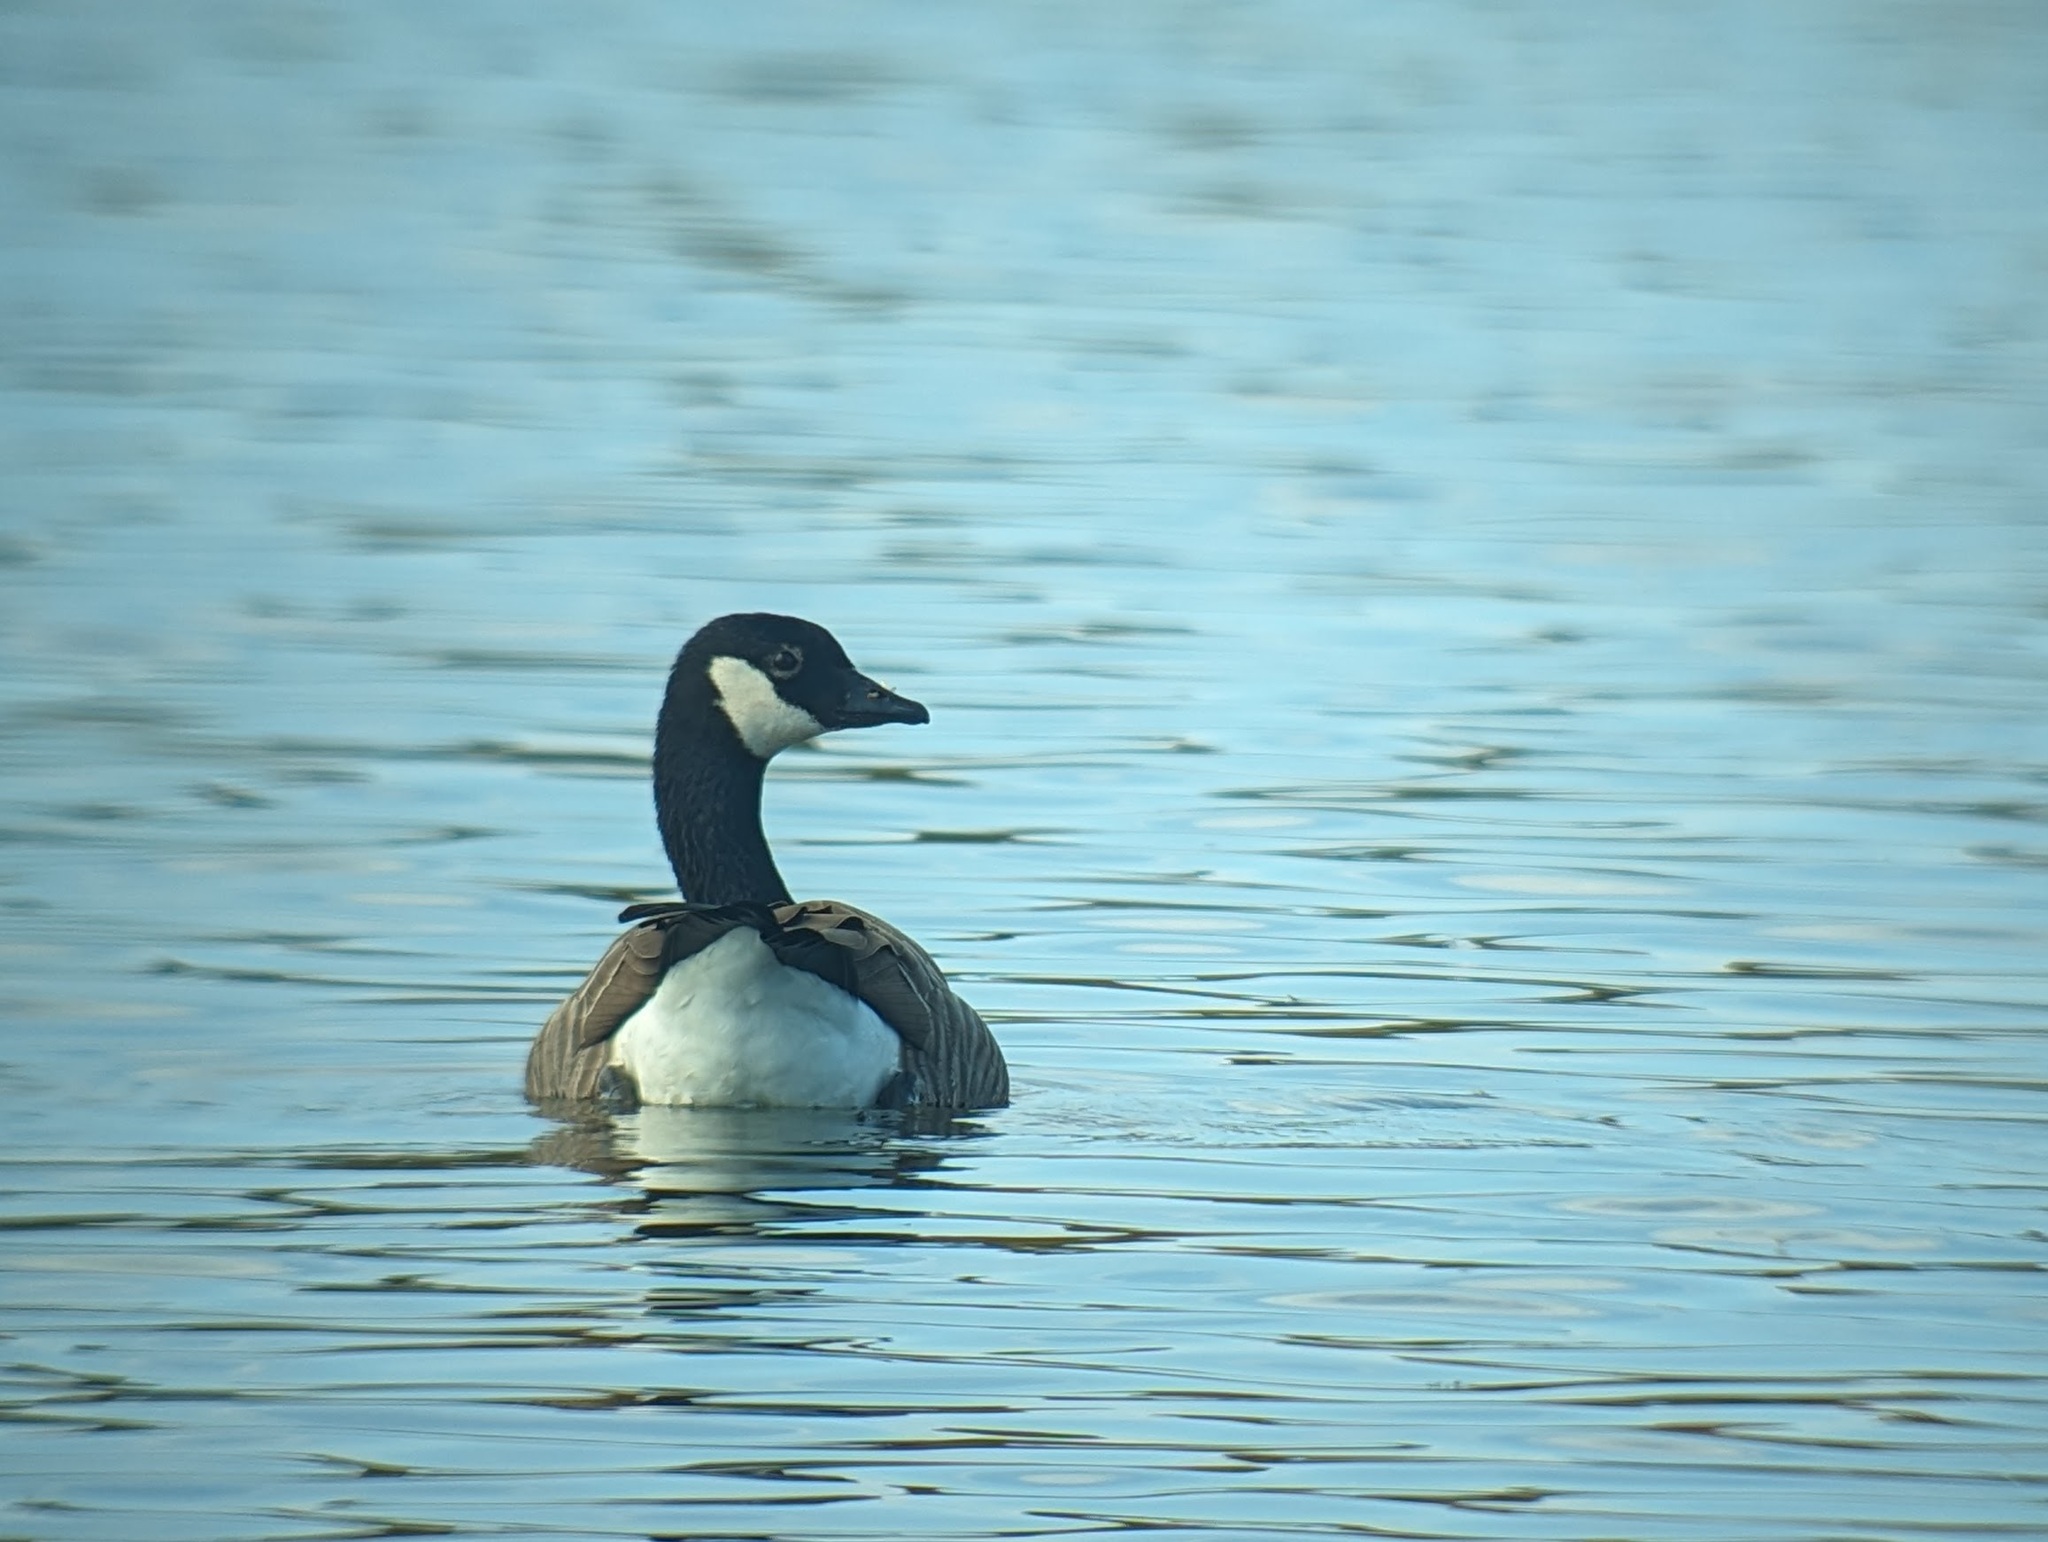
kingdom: Animalia
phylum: Chordata
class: Aves
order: Anseriformes
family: Anatidae
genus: Branta
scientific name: Branta hutchinsii
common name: Cackling goose
